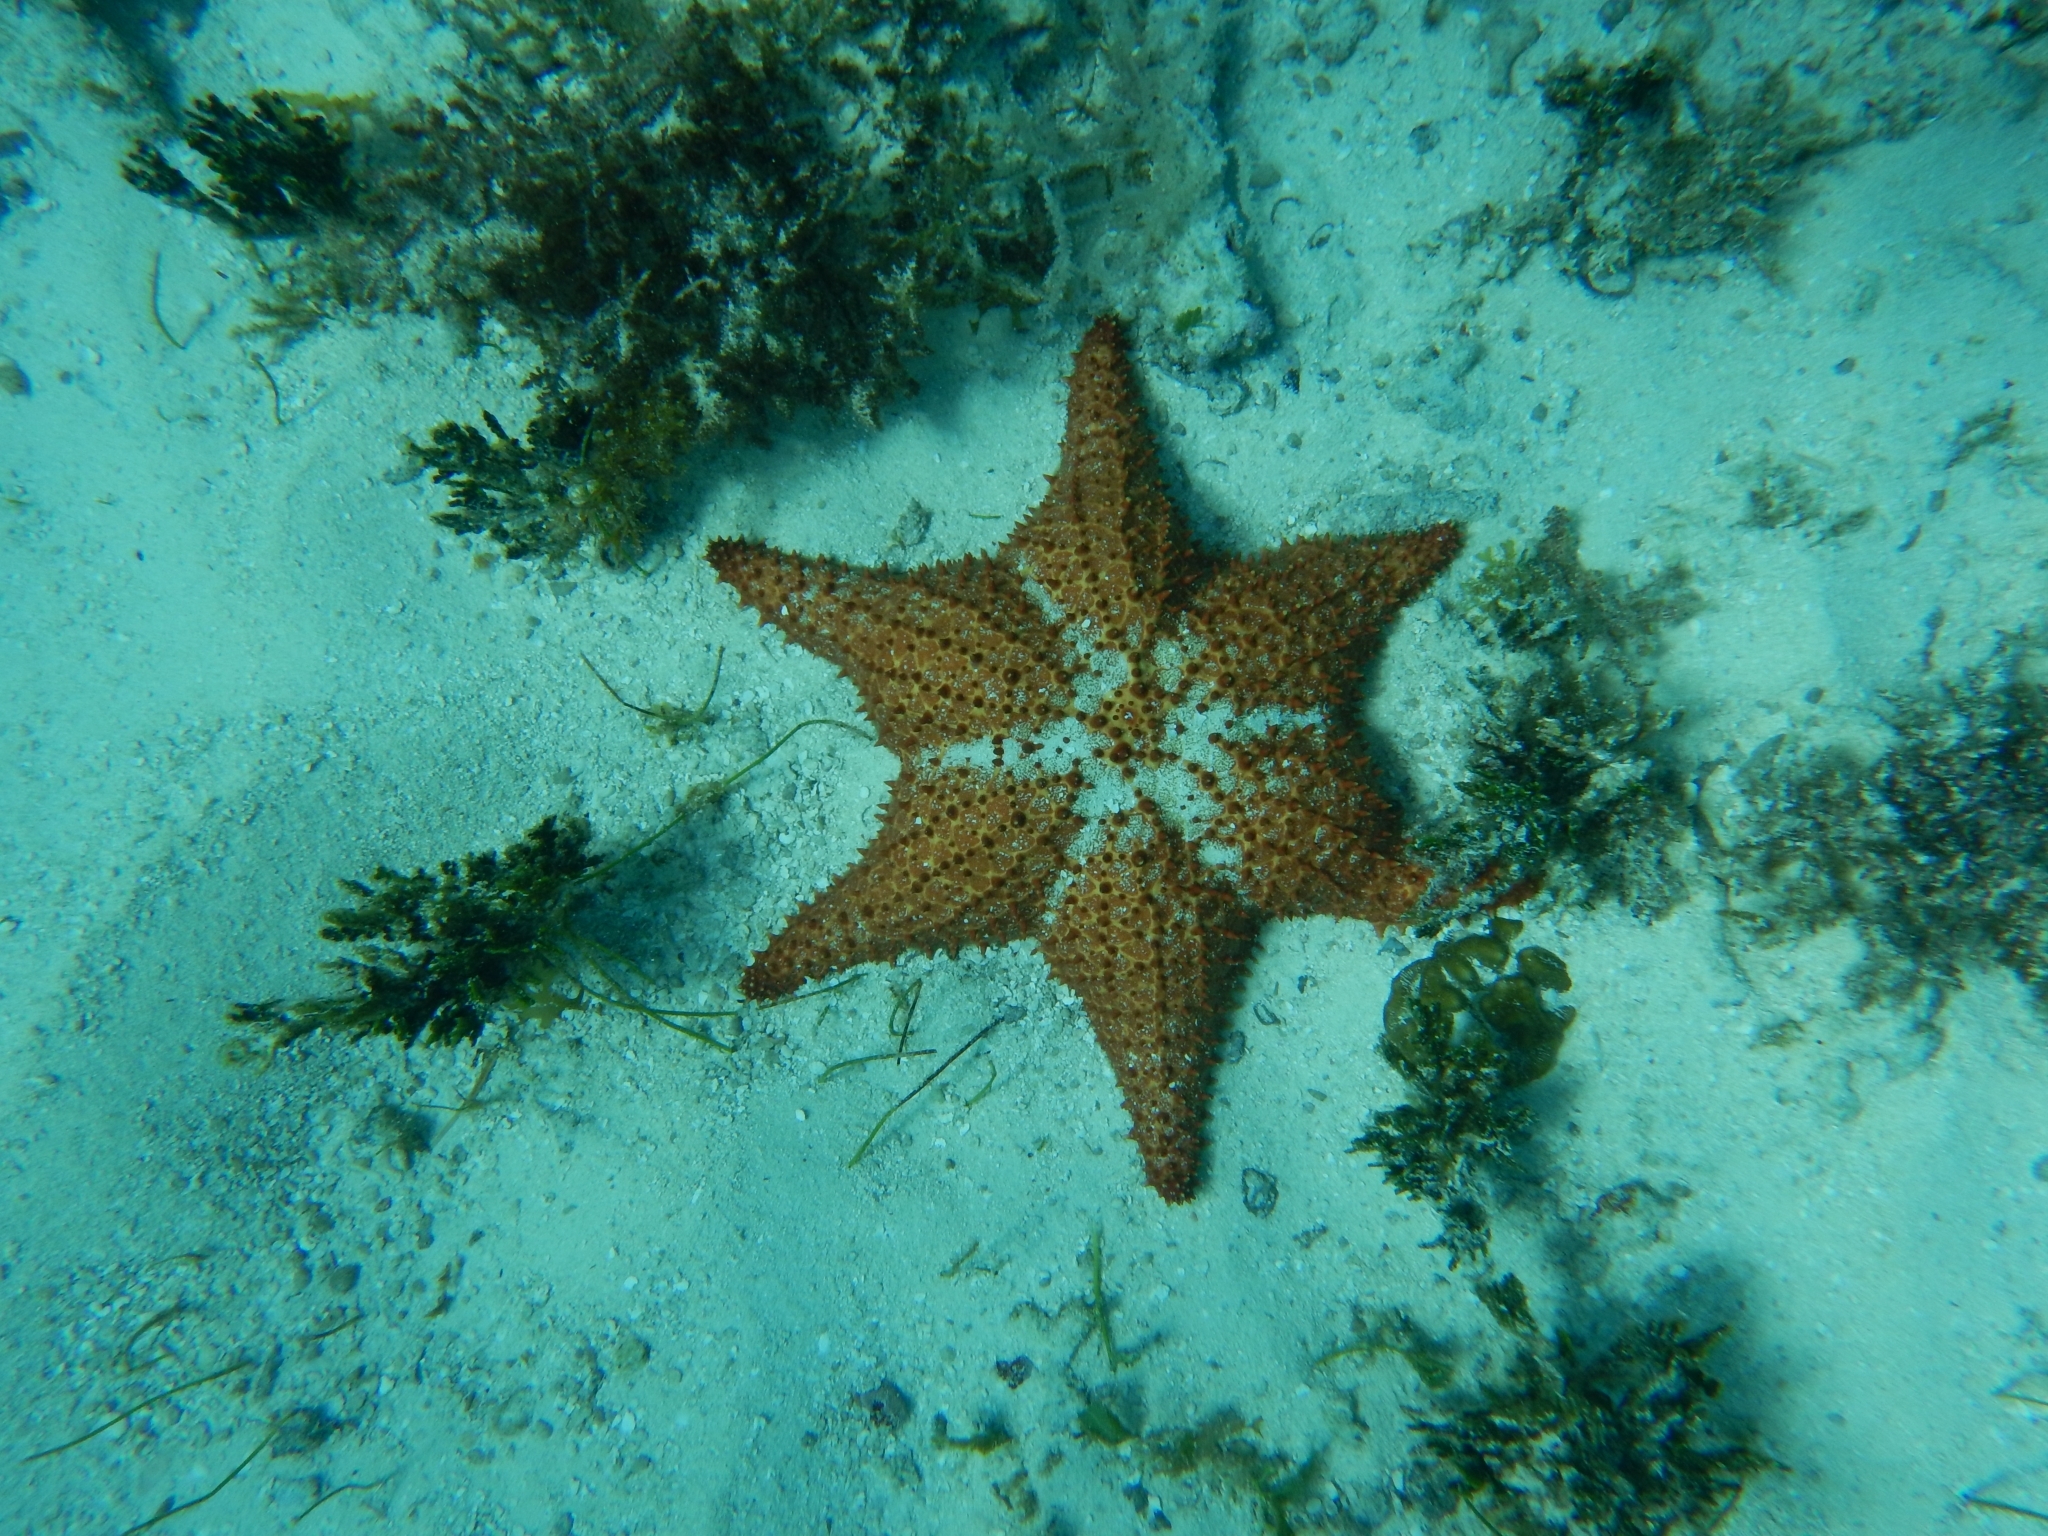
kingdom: Animalia
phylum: Echinodermata
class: Asteroidea
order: Valvatida
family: Oreasteridae
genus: Oreaster
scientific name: Oreaster reticulatus
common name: Cushion sea star
